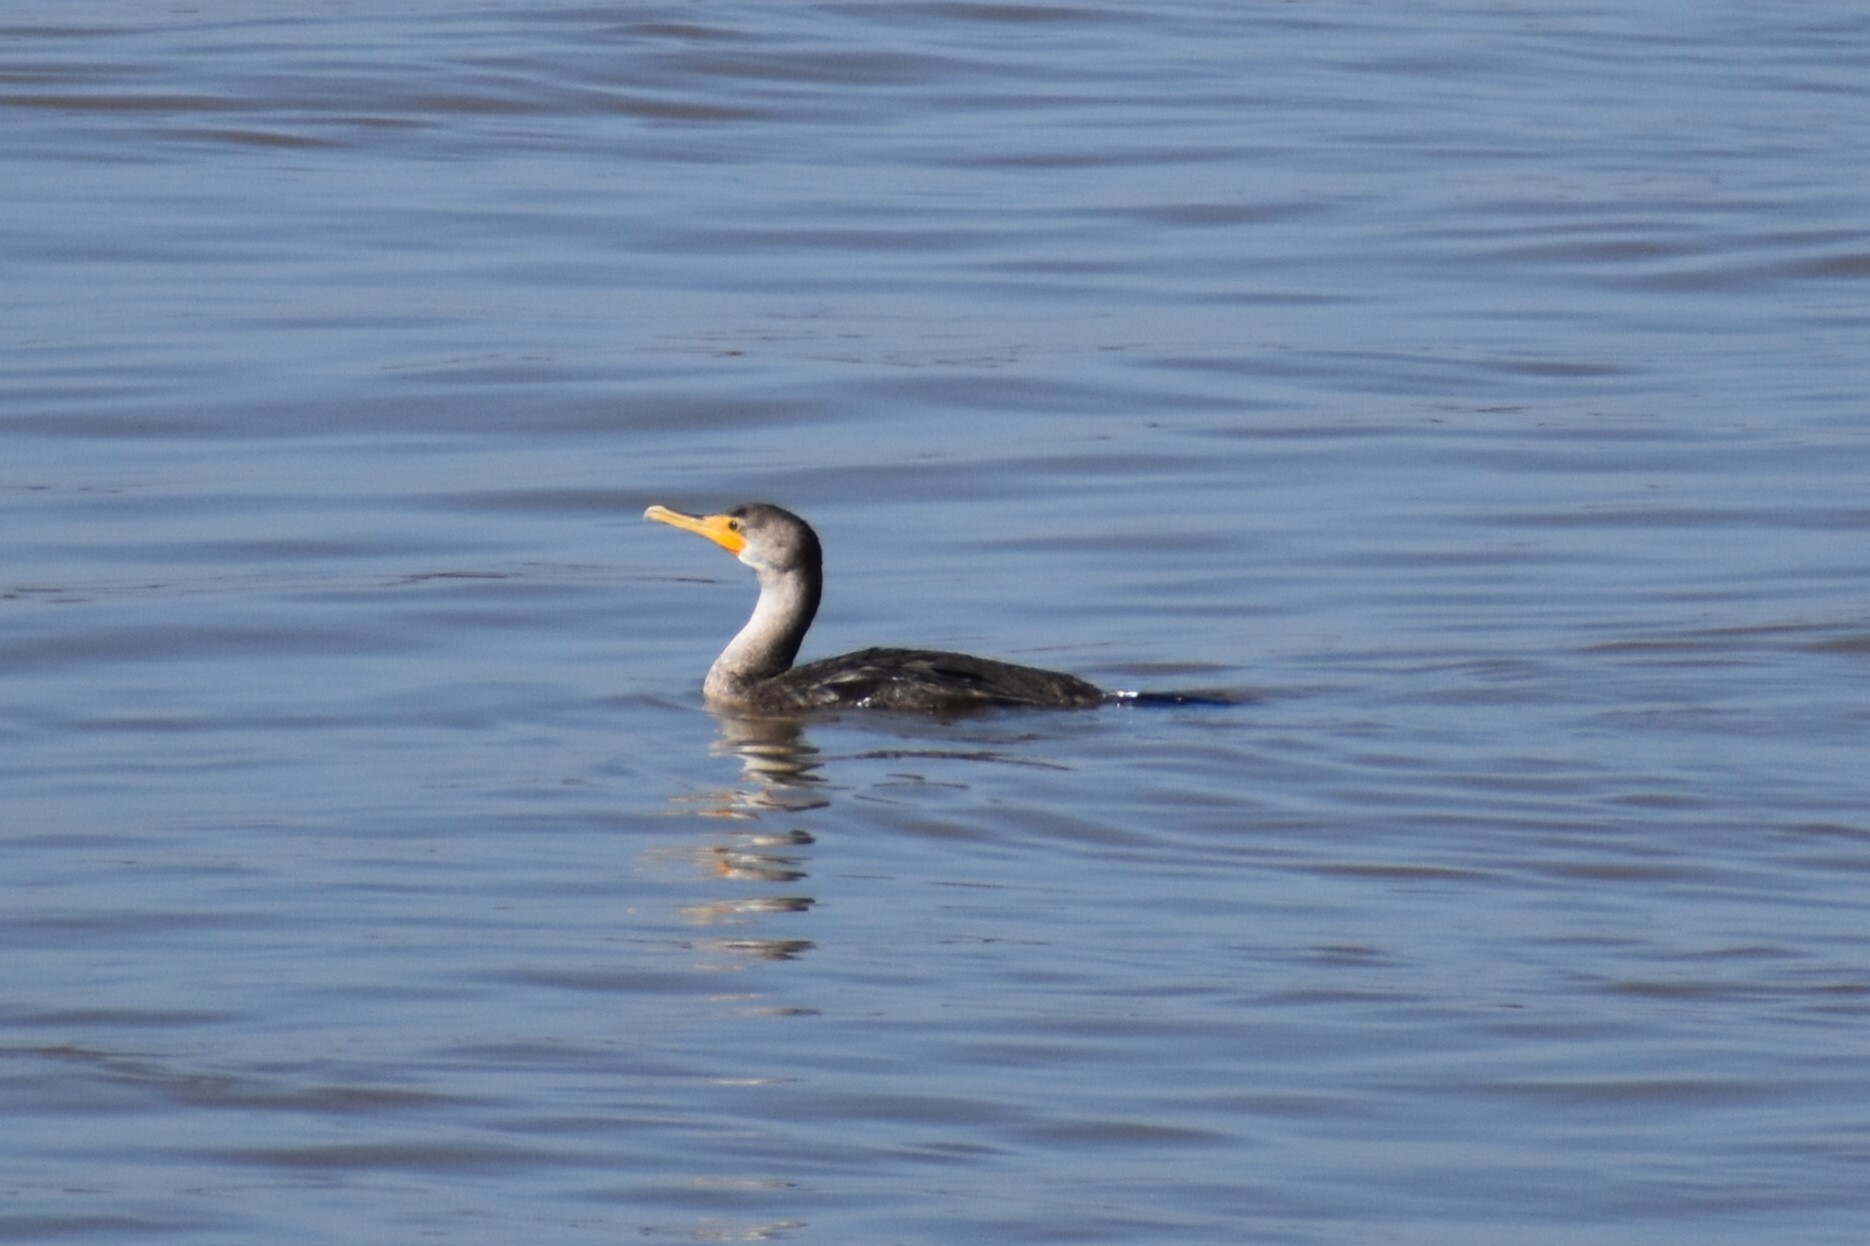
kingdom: Animalia
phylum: Chordata
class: Aves
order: Suliformes
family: Phalacrocoracidae
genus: Phalacrocorax
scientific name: Phalacrocorax auritus
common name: Double-crested cormorant
